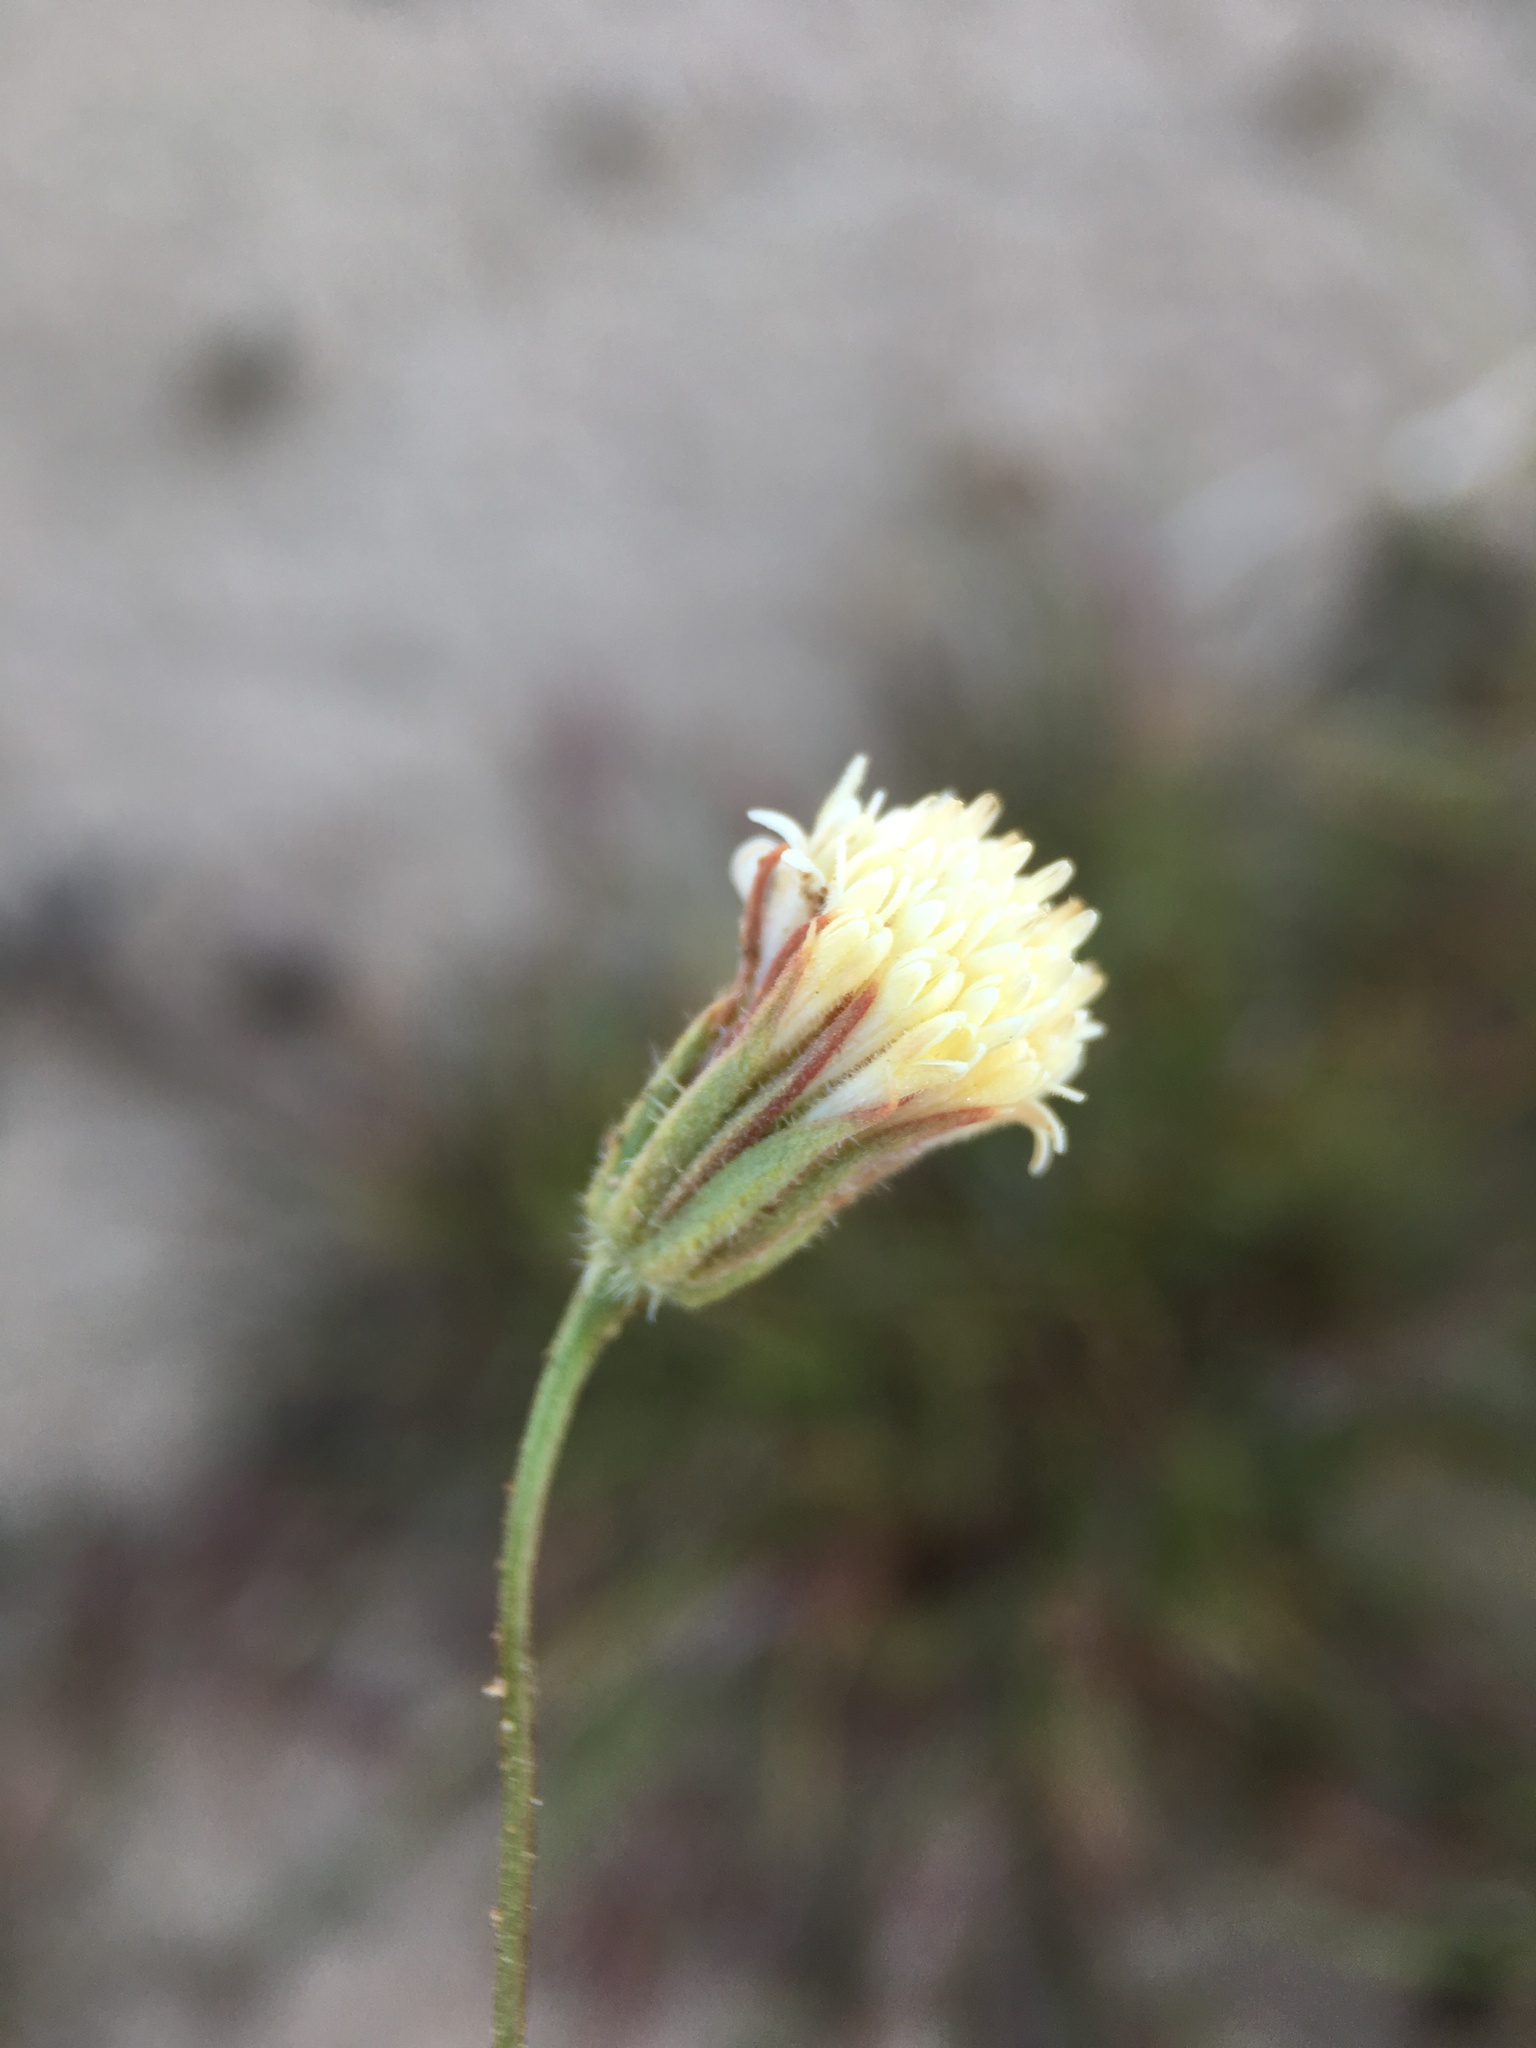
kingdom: Plantae
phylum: Tracheophyta
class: Magnoliopsida
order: Asterales
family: Asteraceae
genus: Chaenactis
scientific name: Chaenactis carphoclinia
